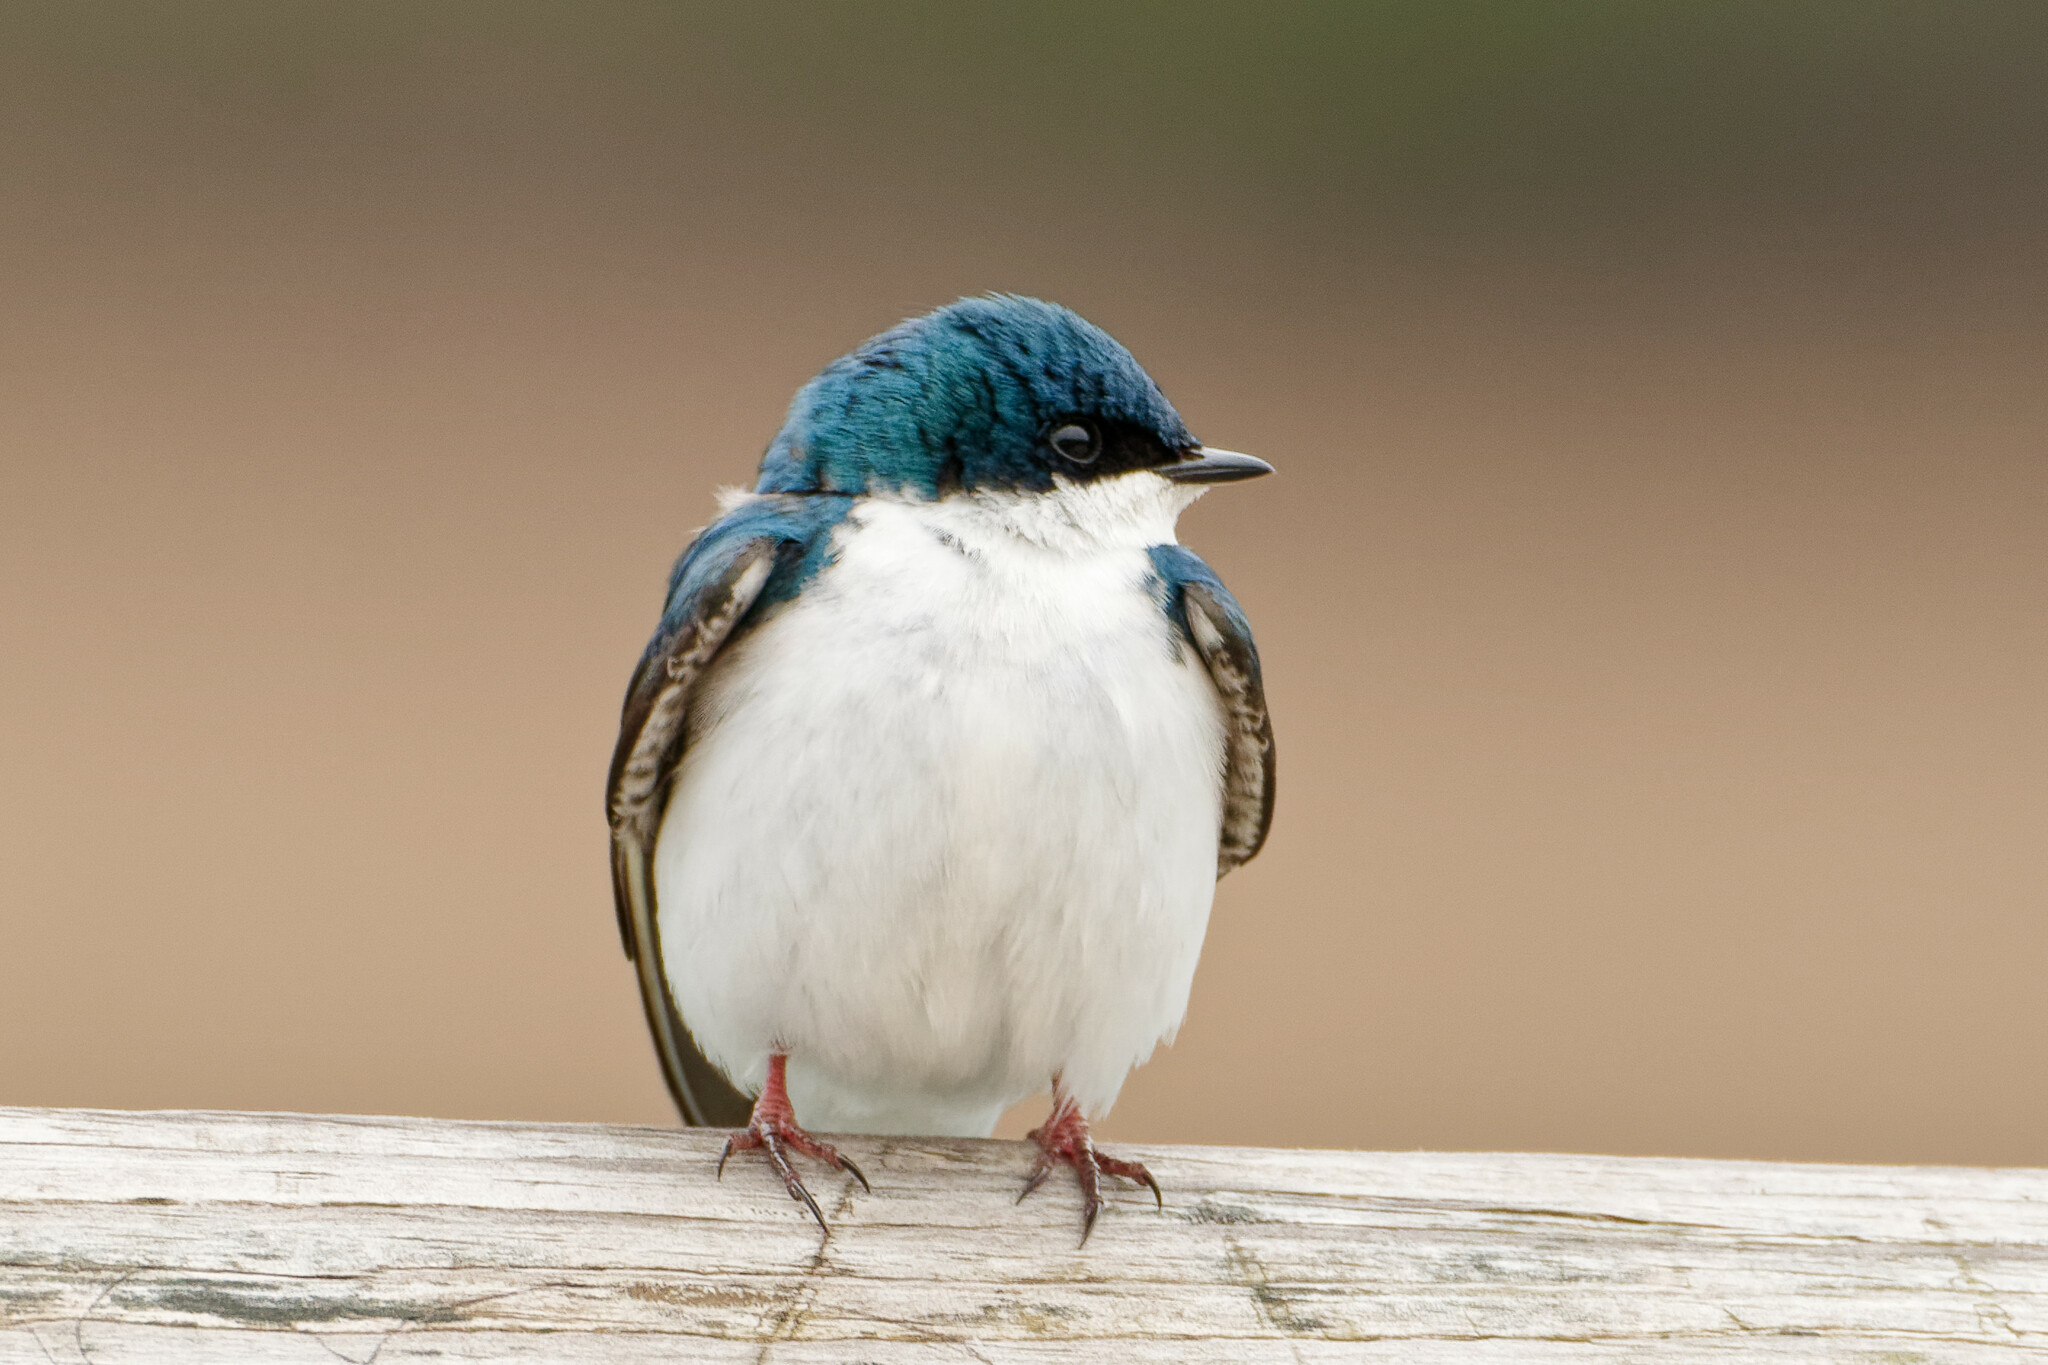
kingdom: Animalia
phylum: Chordata
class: Aves
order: Passeriformes
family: Hirundinidae
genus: Tachycineta
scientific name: Tachycineta bicolor
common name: Tree swallow
